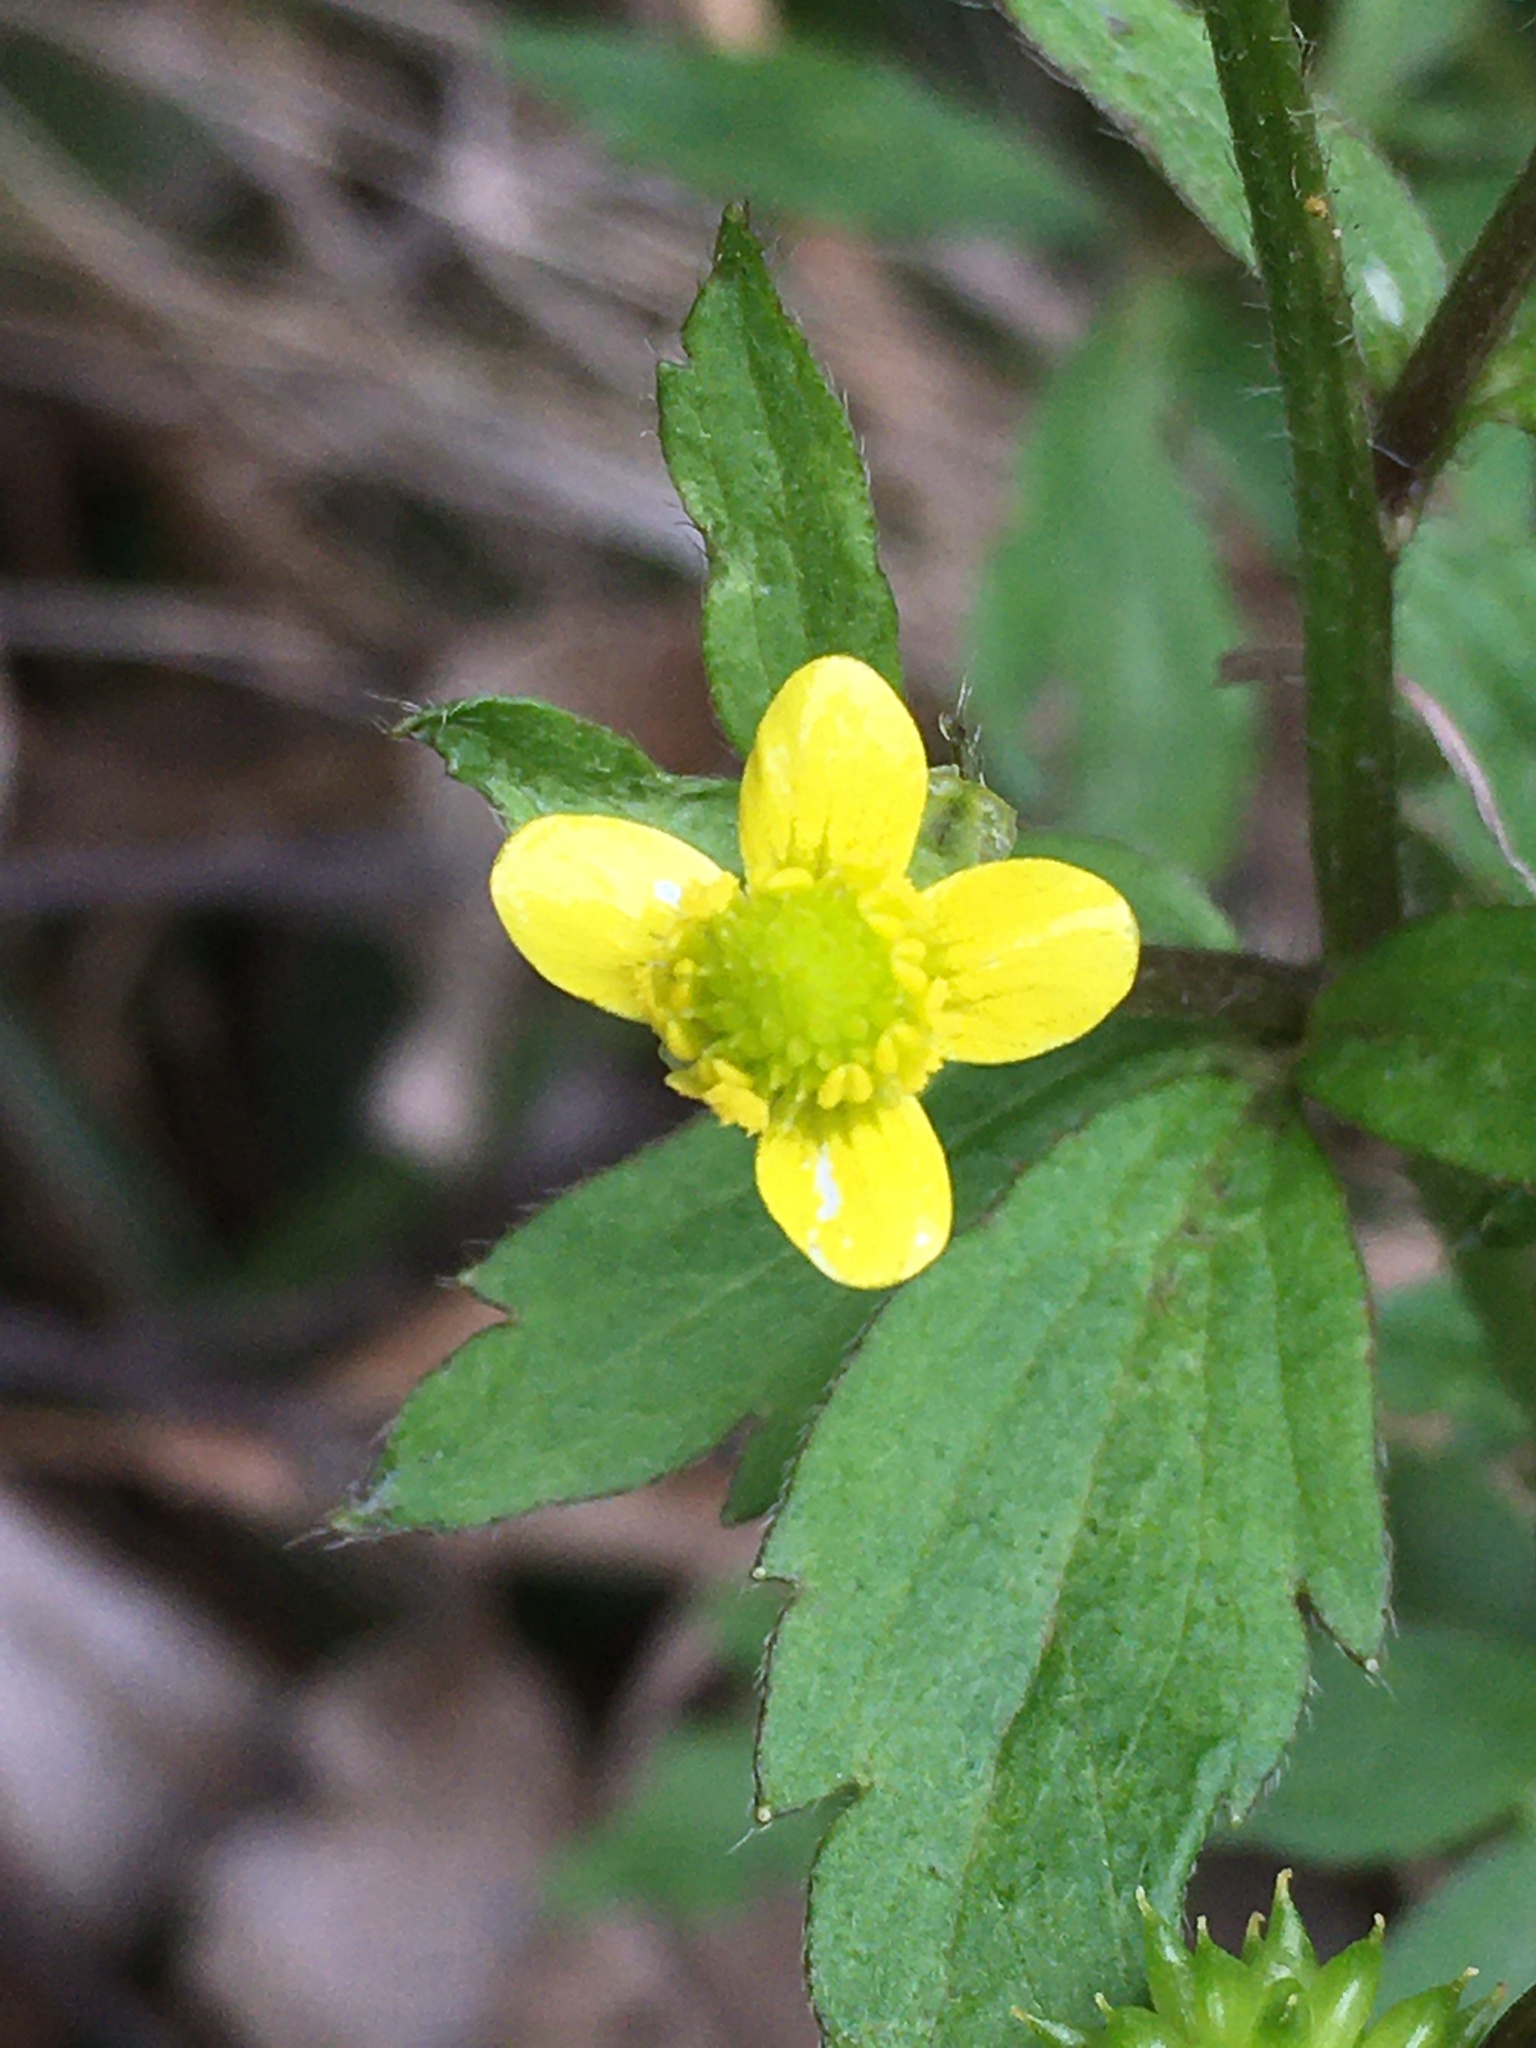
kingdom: Plantae
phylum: Tracheophyta
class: Magnoliopsida
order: Ranunculales
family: Ranunculaceae
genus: Ranunculus
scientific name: Ranunculus cantoniensis
